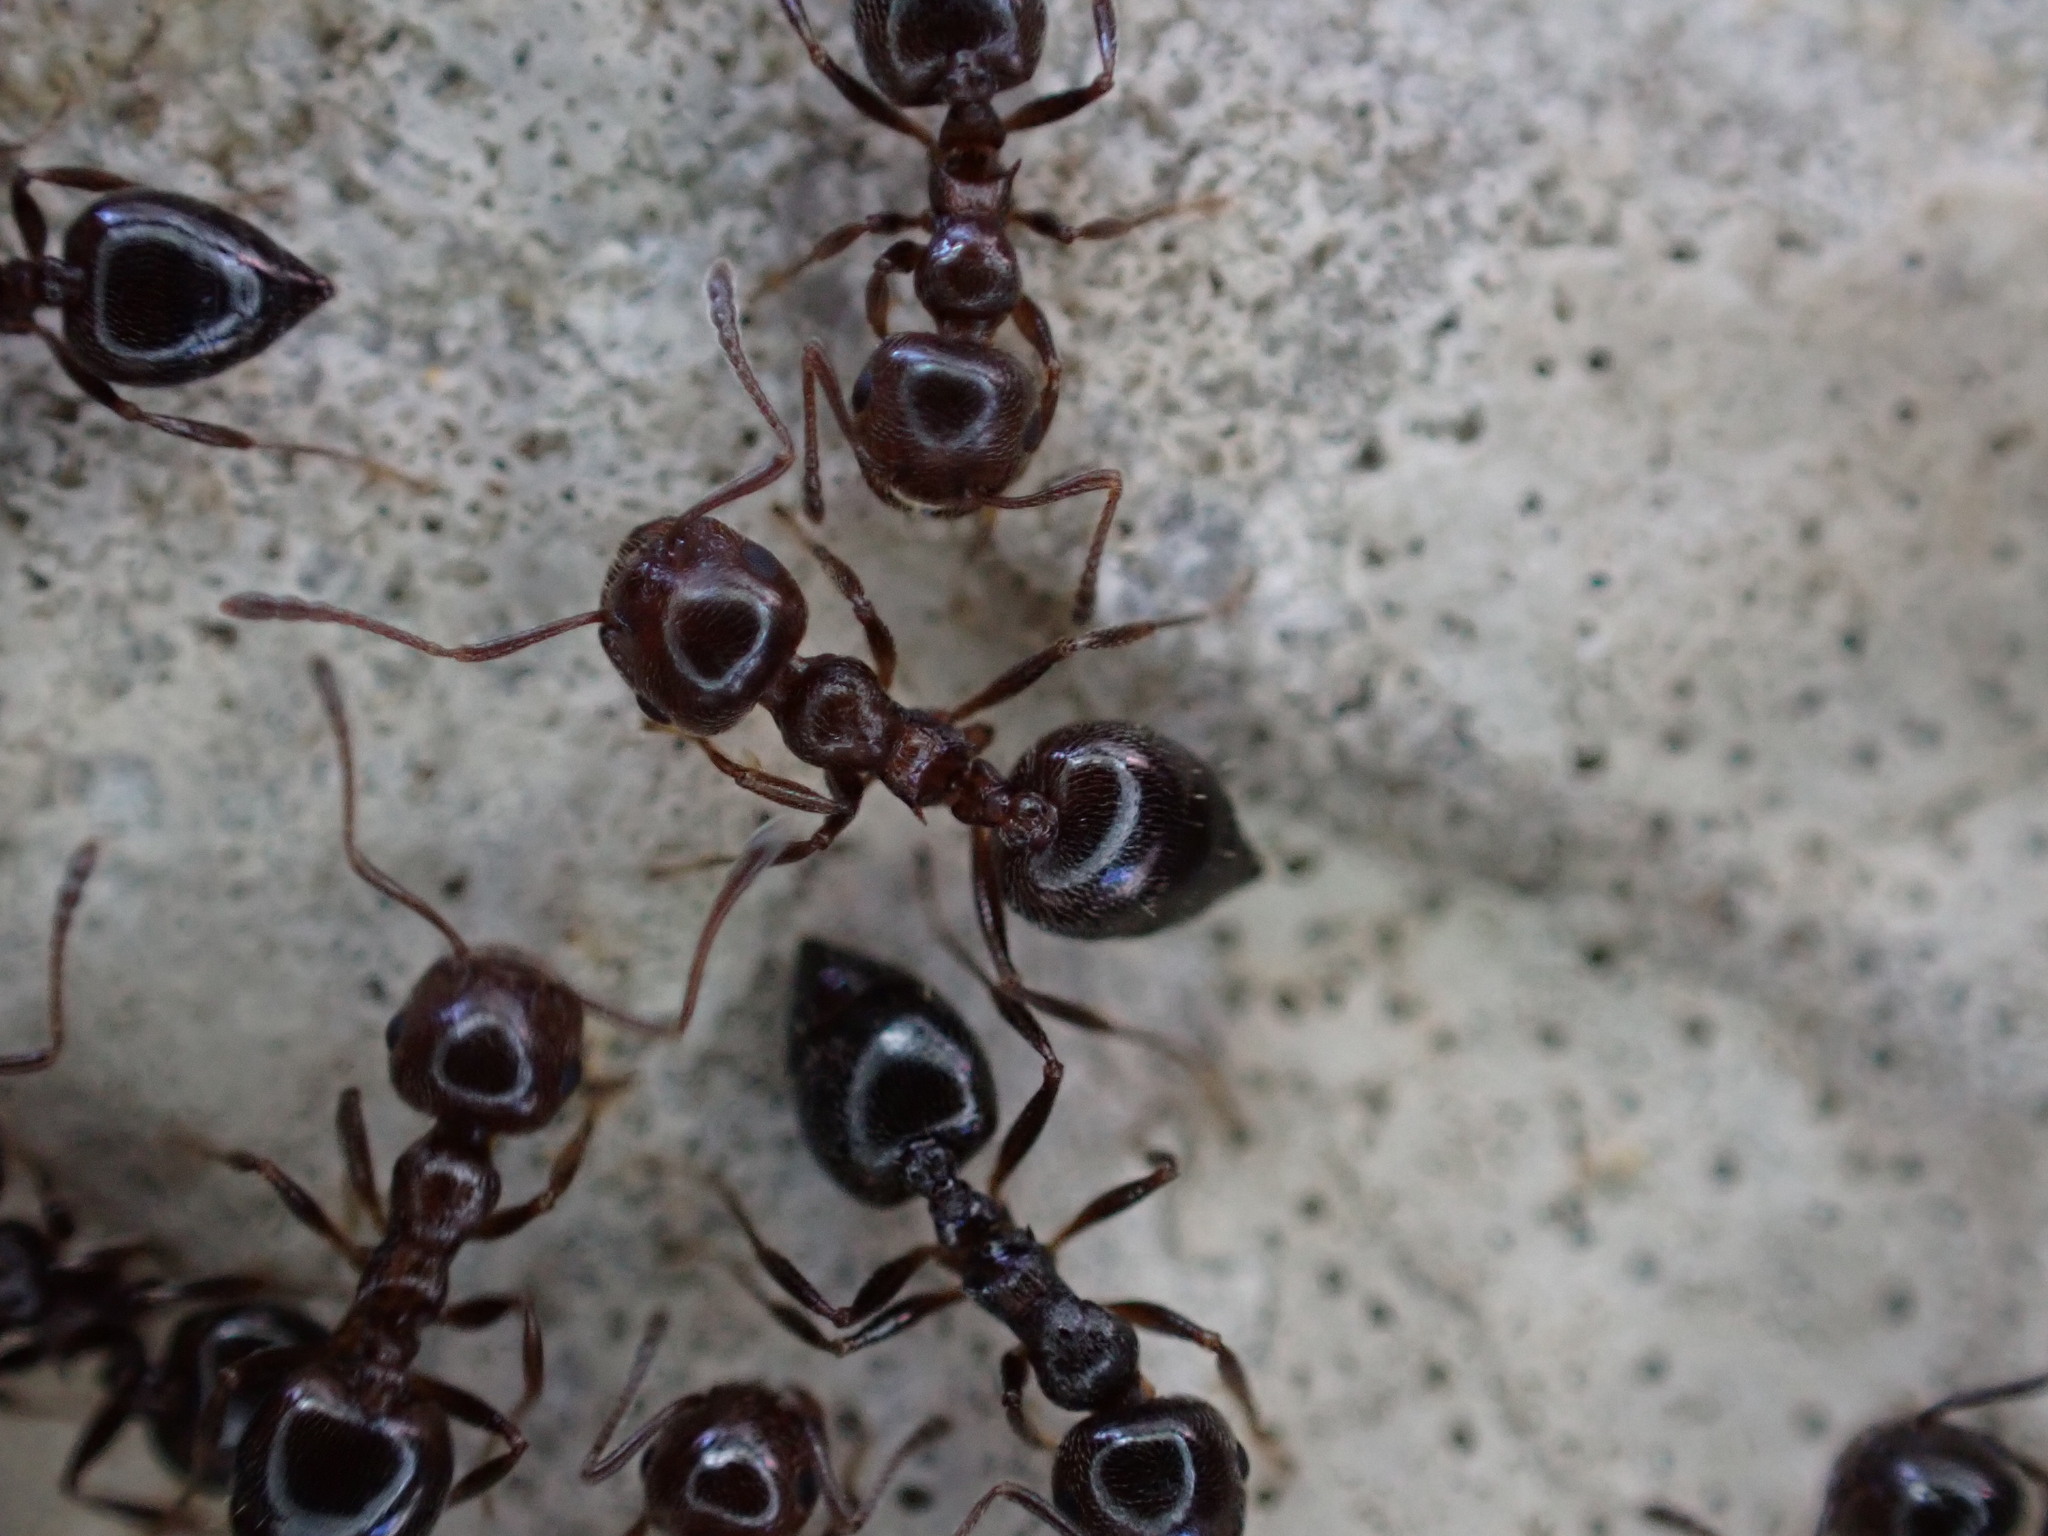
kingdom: Animalia
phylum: Arthropoda
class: Insecta
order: Hymenoptera
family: Formicidae
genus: Crematogaster
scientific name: Crematogaster auberti
